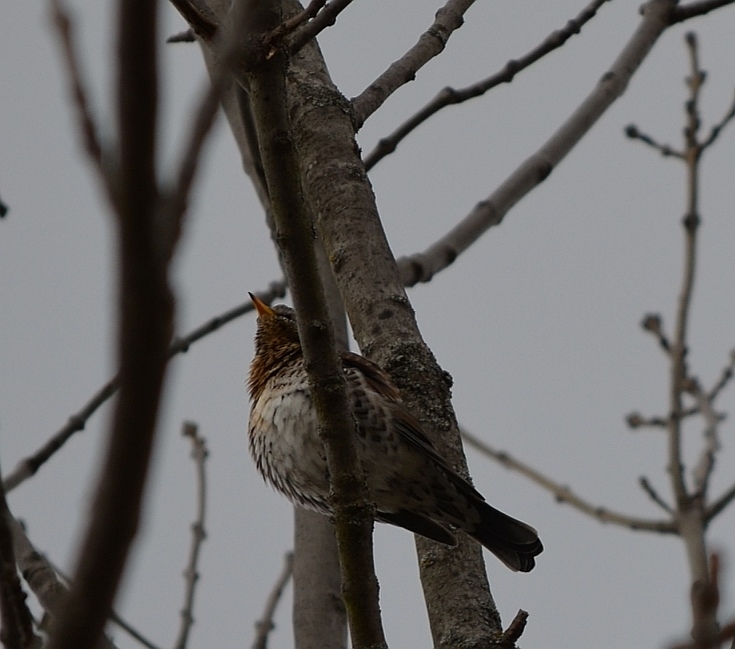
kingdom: Animalia
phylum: Chordata
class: Aves
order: Passeriformes
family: Turdidae
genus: Turdus
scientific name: Turdus pilaris
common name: Fieldfare
